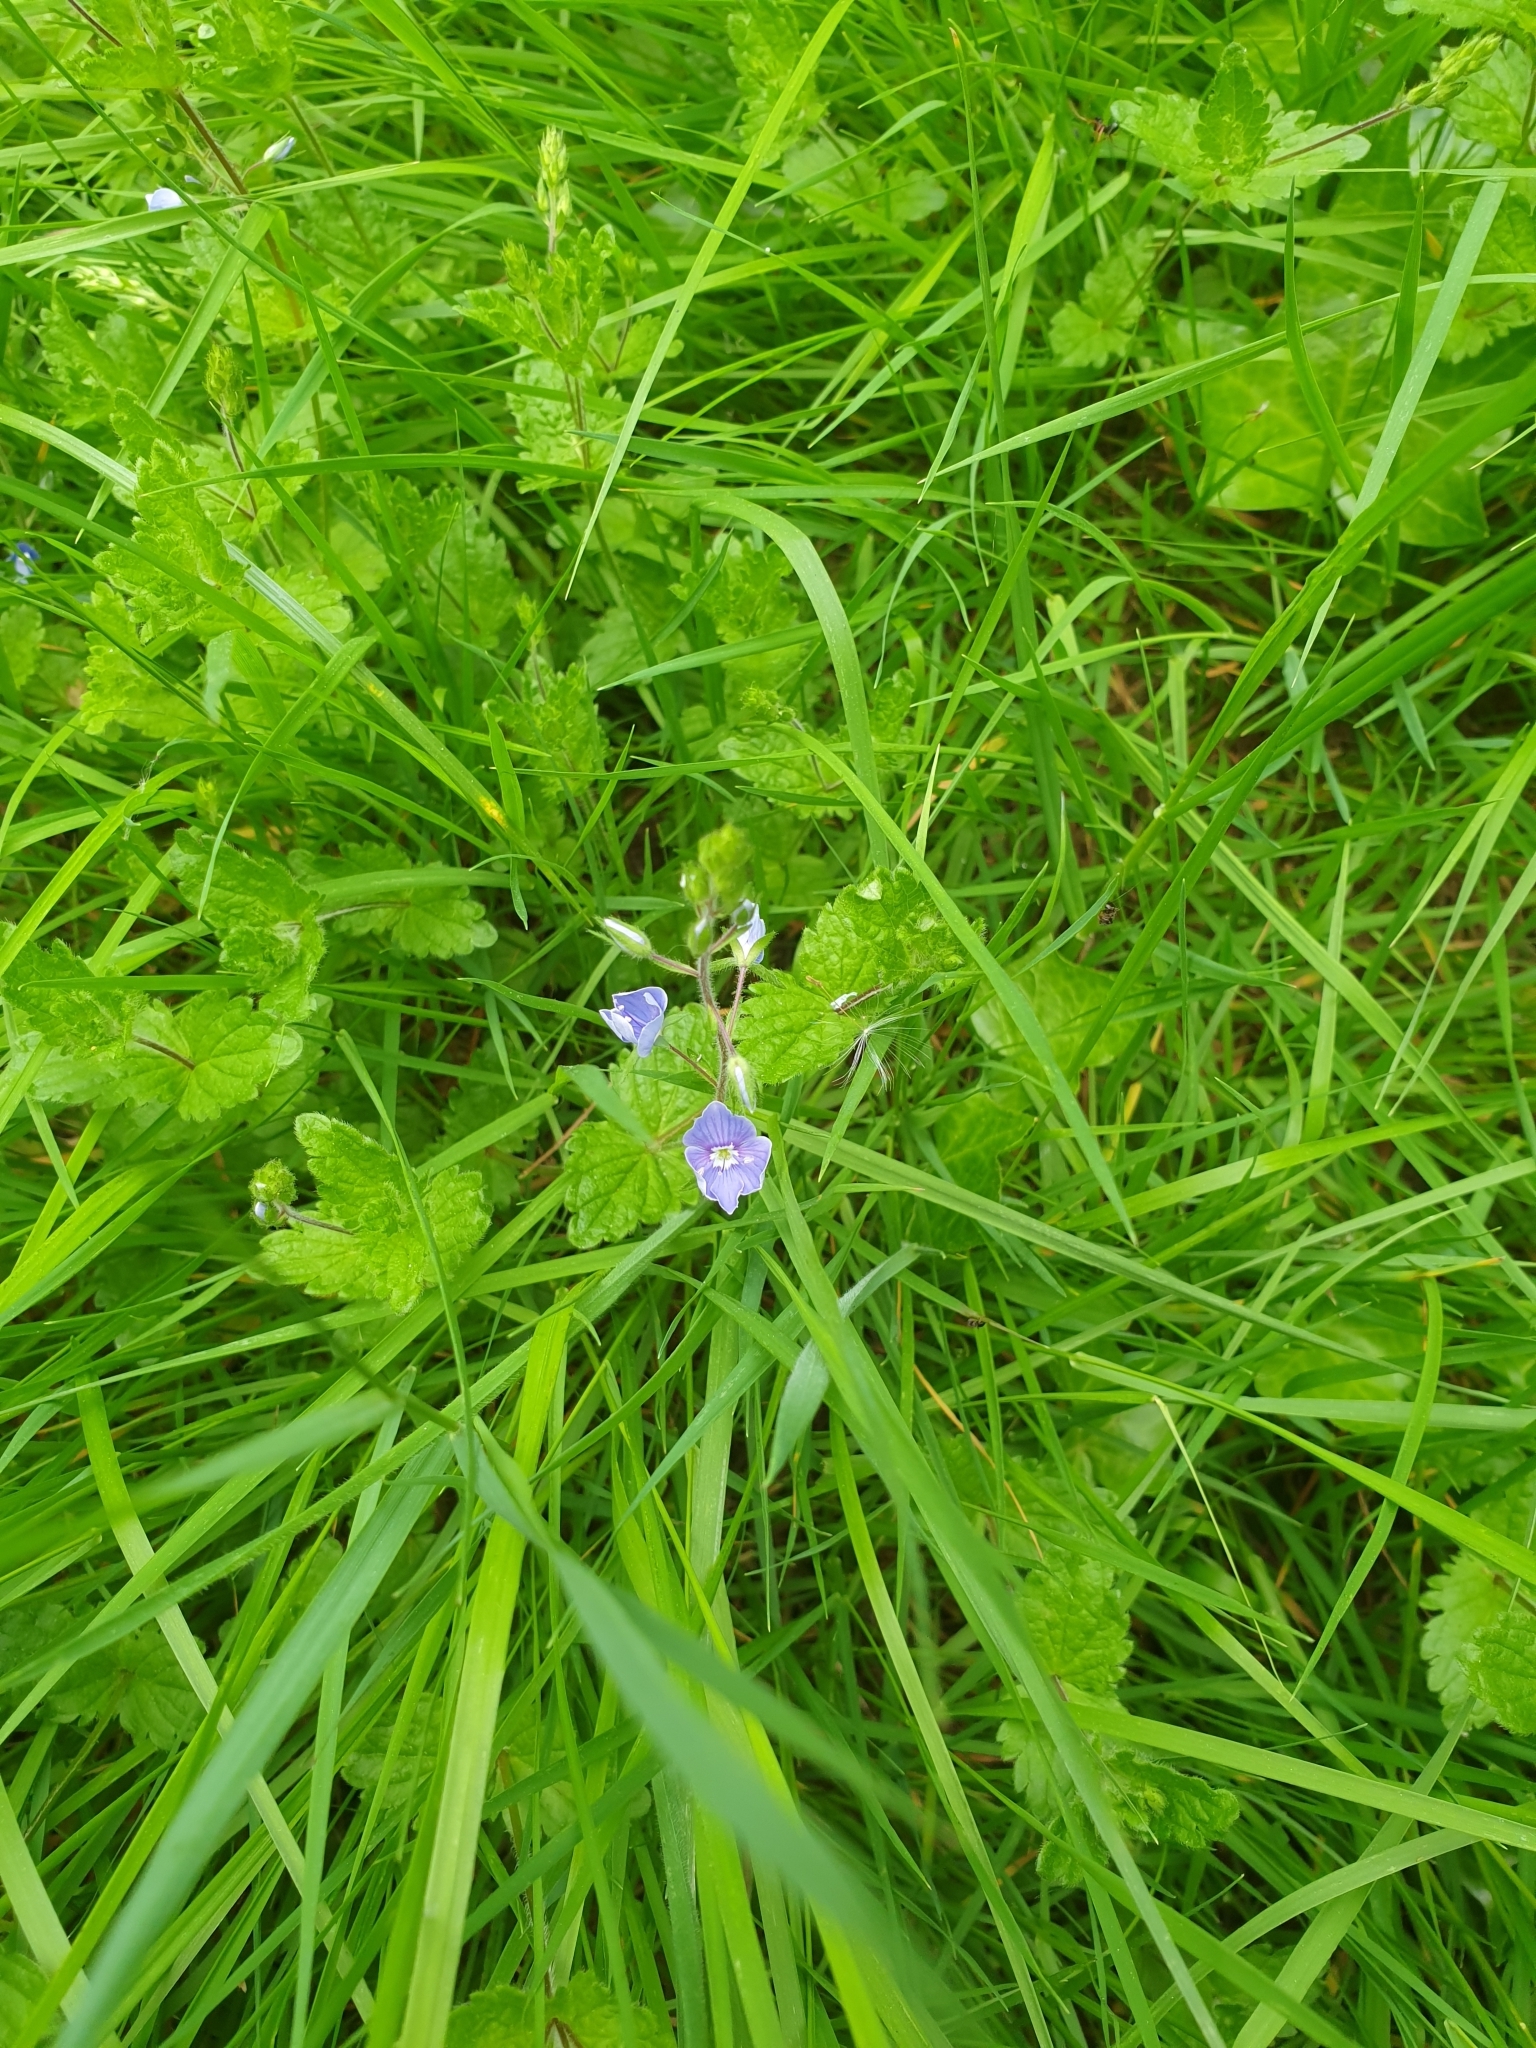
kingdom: Plantae
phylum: Tracheophyta
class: Magnoliopsida
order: Lamiales
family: Plantaginaceae
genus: Veronica
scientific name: Veronica chamaedrys
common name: Germander speedwell
